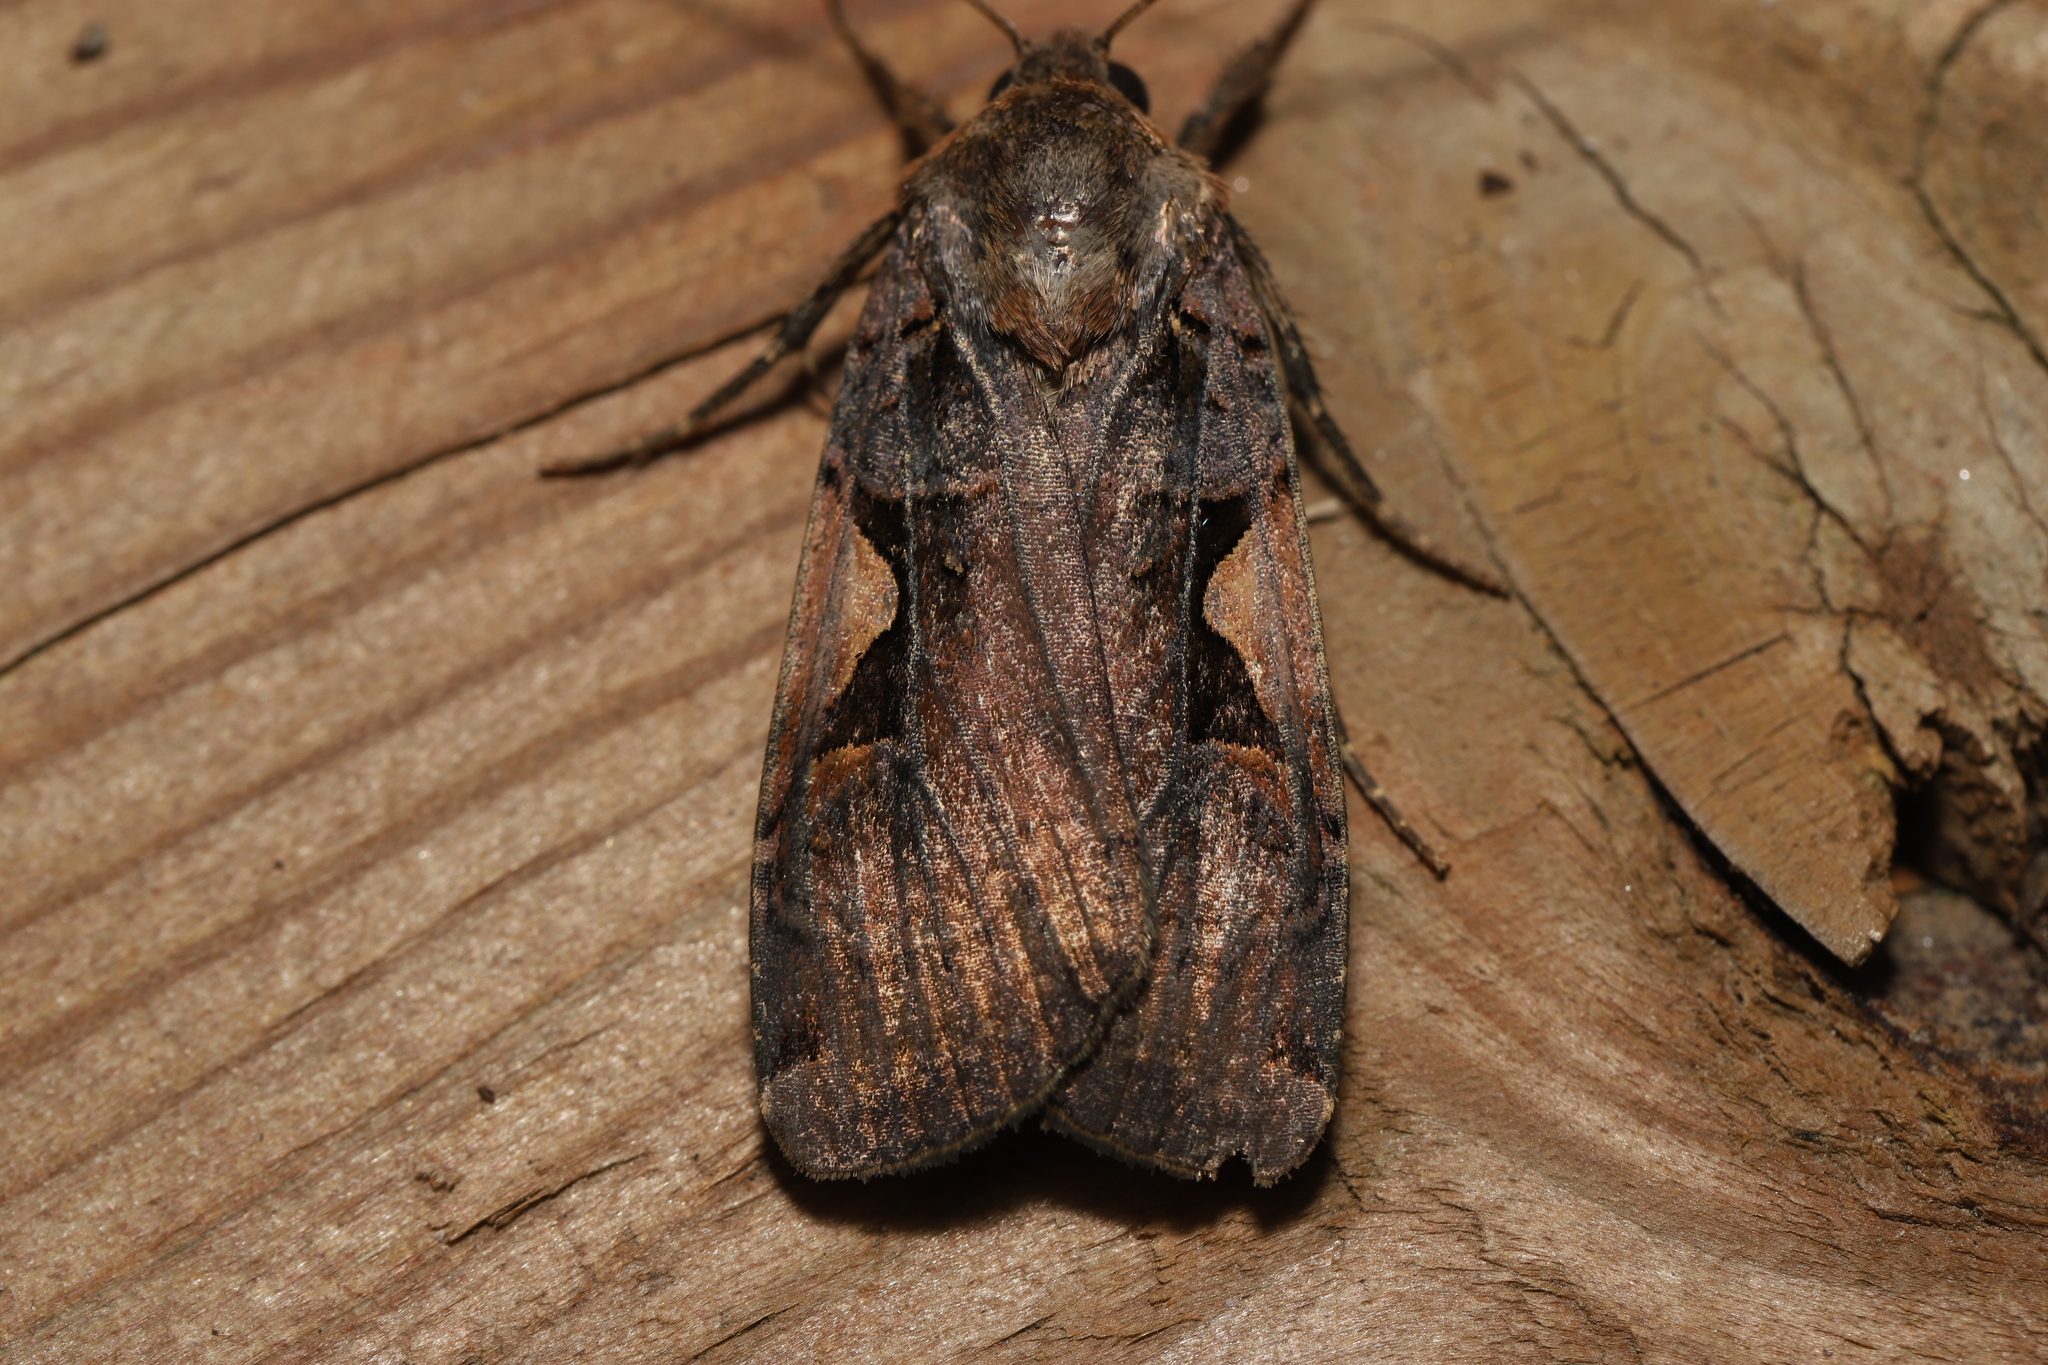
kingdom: Animalia
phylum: Arthropoda
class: Insecta
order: Lepidoptera
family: Noctuidae
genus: Xestia
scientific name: Xestia c-nigrum
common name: Setaceous hebrew character
